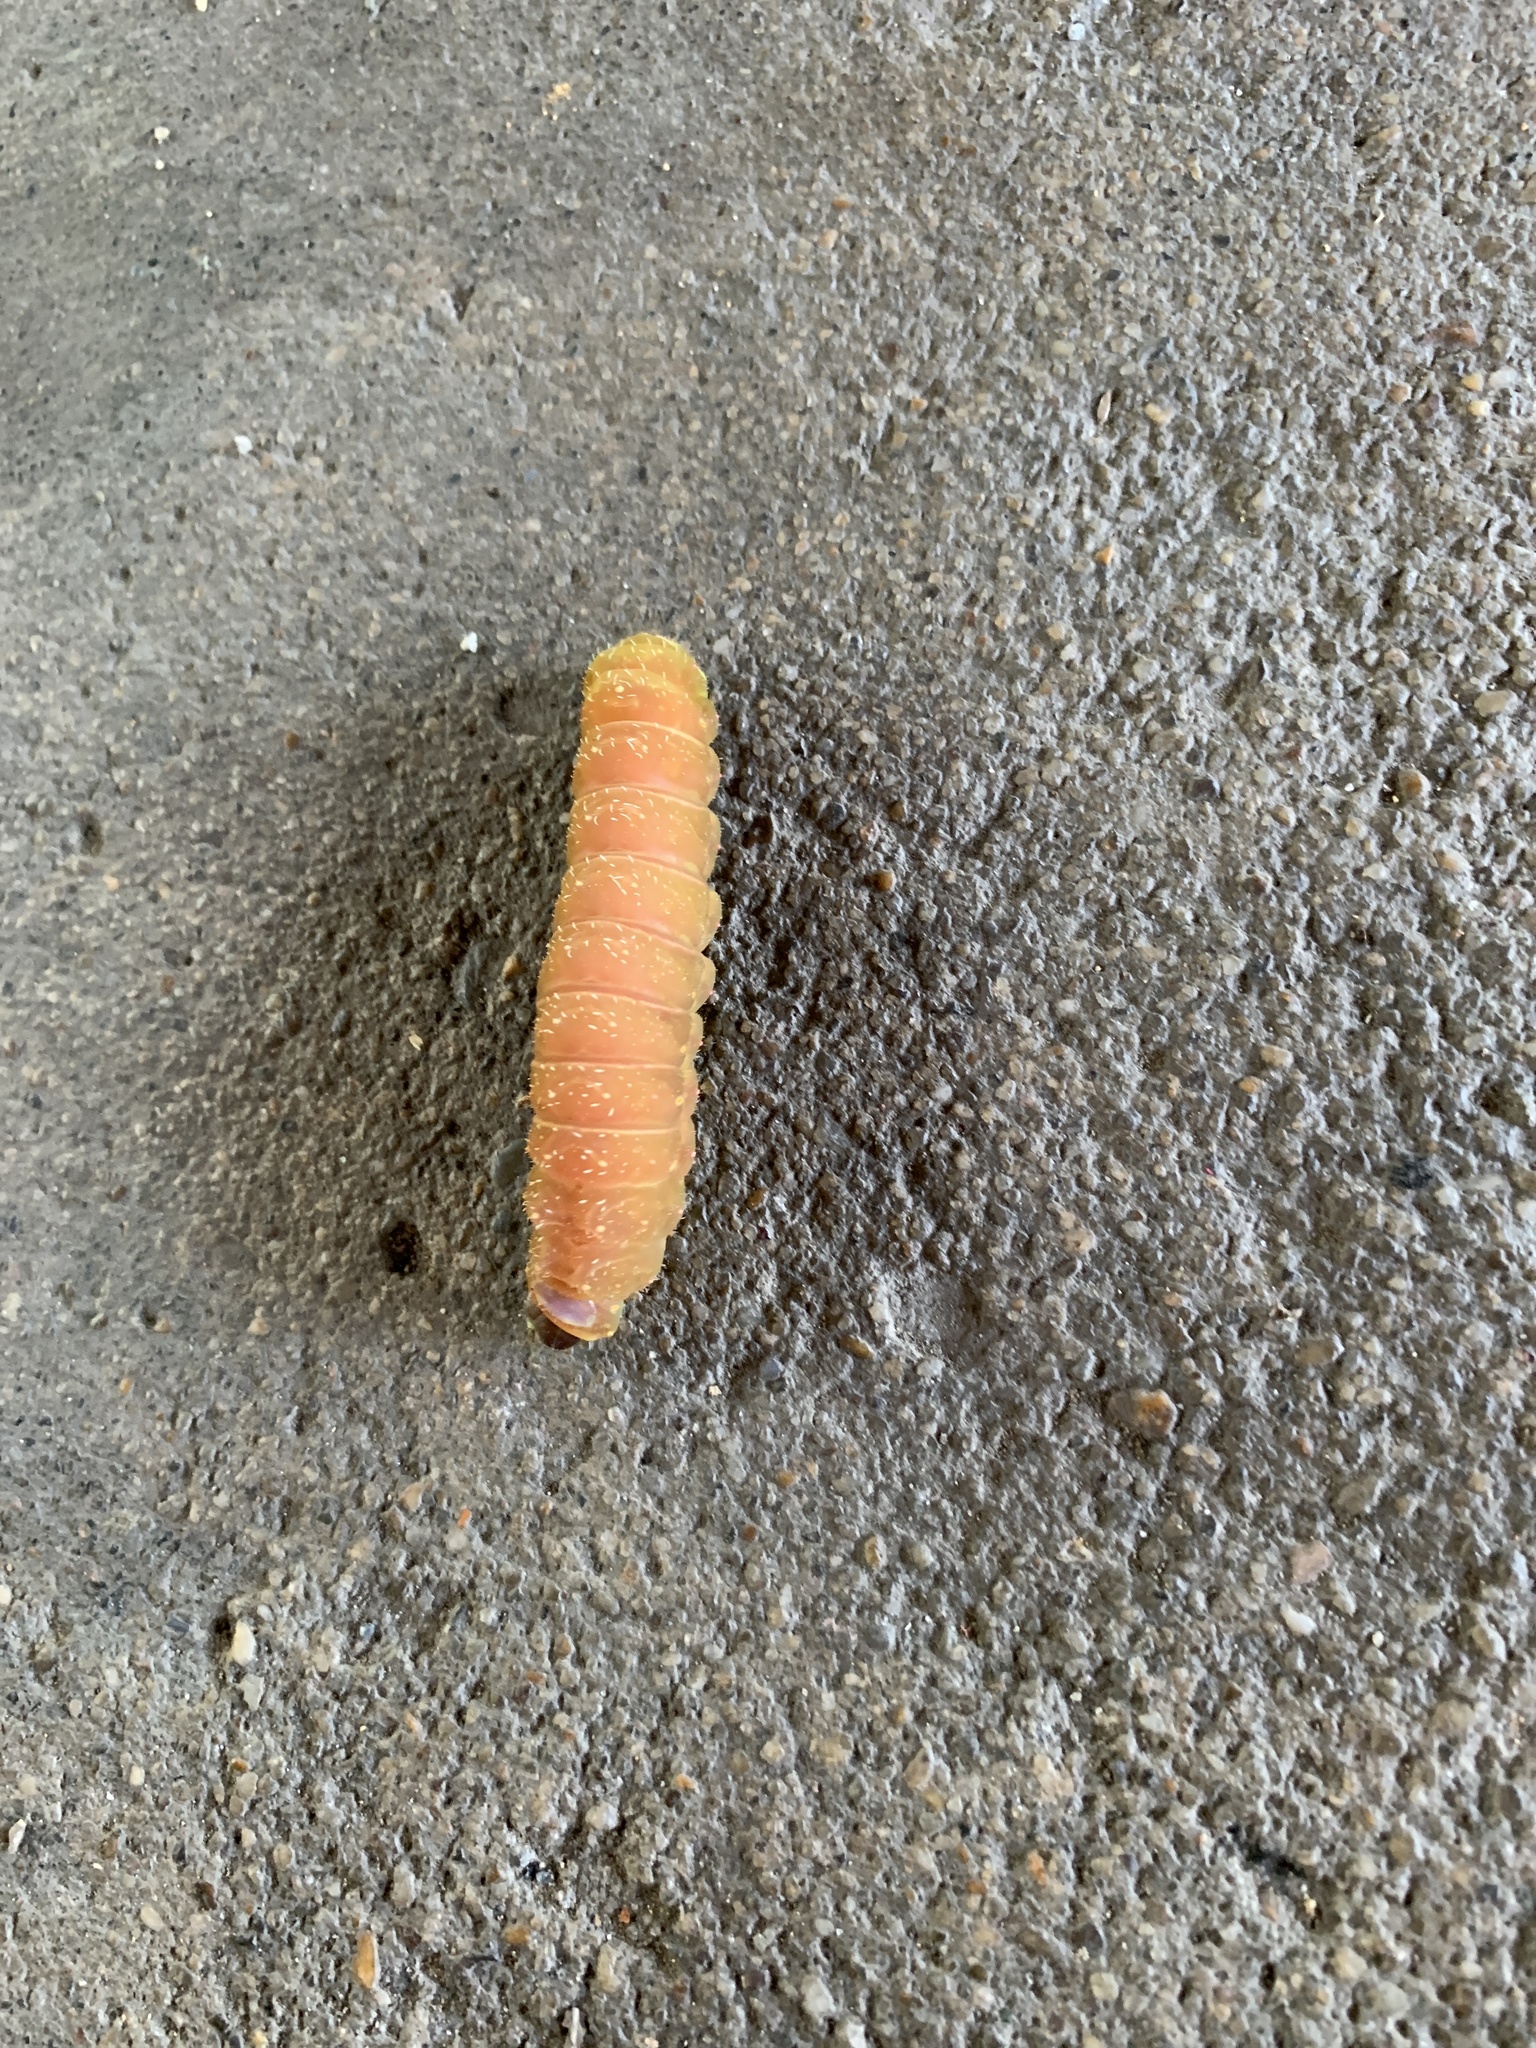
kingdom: Animalia
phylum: Arthropoda
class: Insecta
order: Lepidoptera
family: Saturniidae
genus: Actias
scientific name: Actias luna
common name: Luna moth
